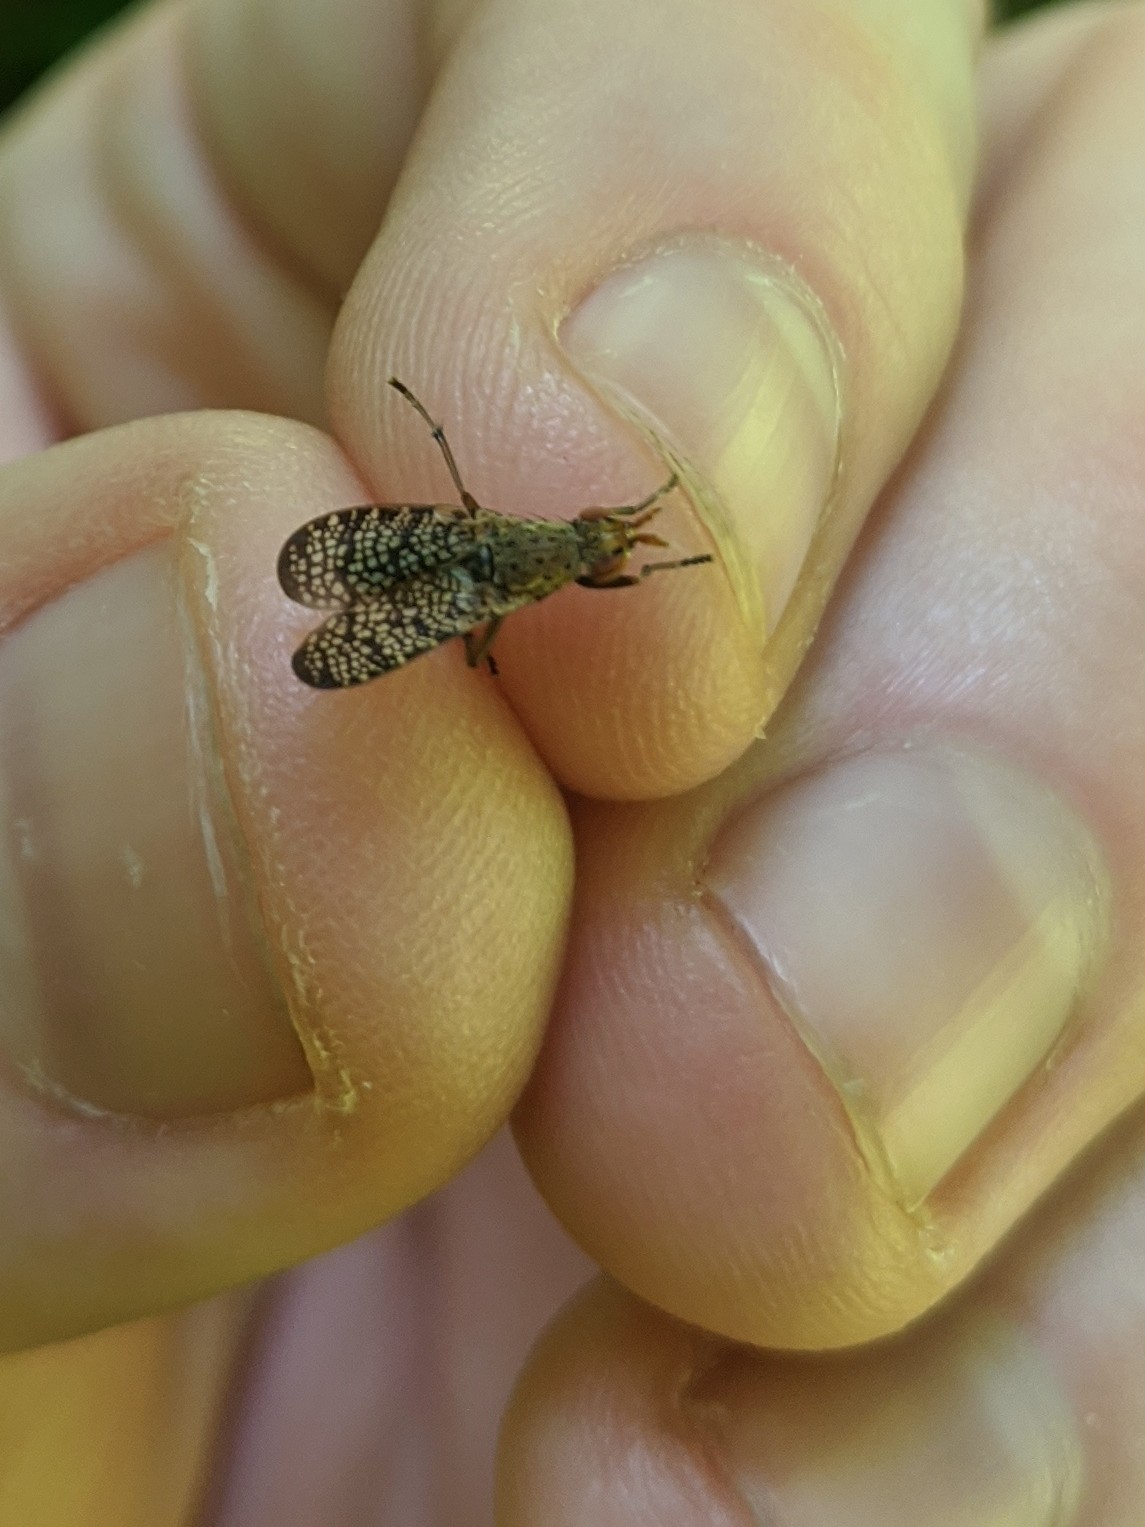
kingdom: Animalia
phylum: Arthropoda
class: Insecta
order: Diptera
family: Sciomyzidae
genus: Euthycera
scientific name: Euthycera flavescens
